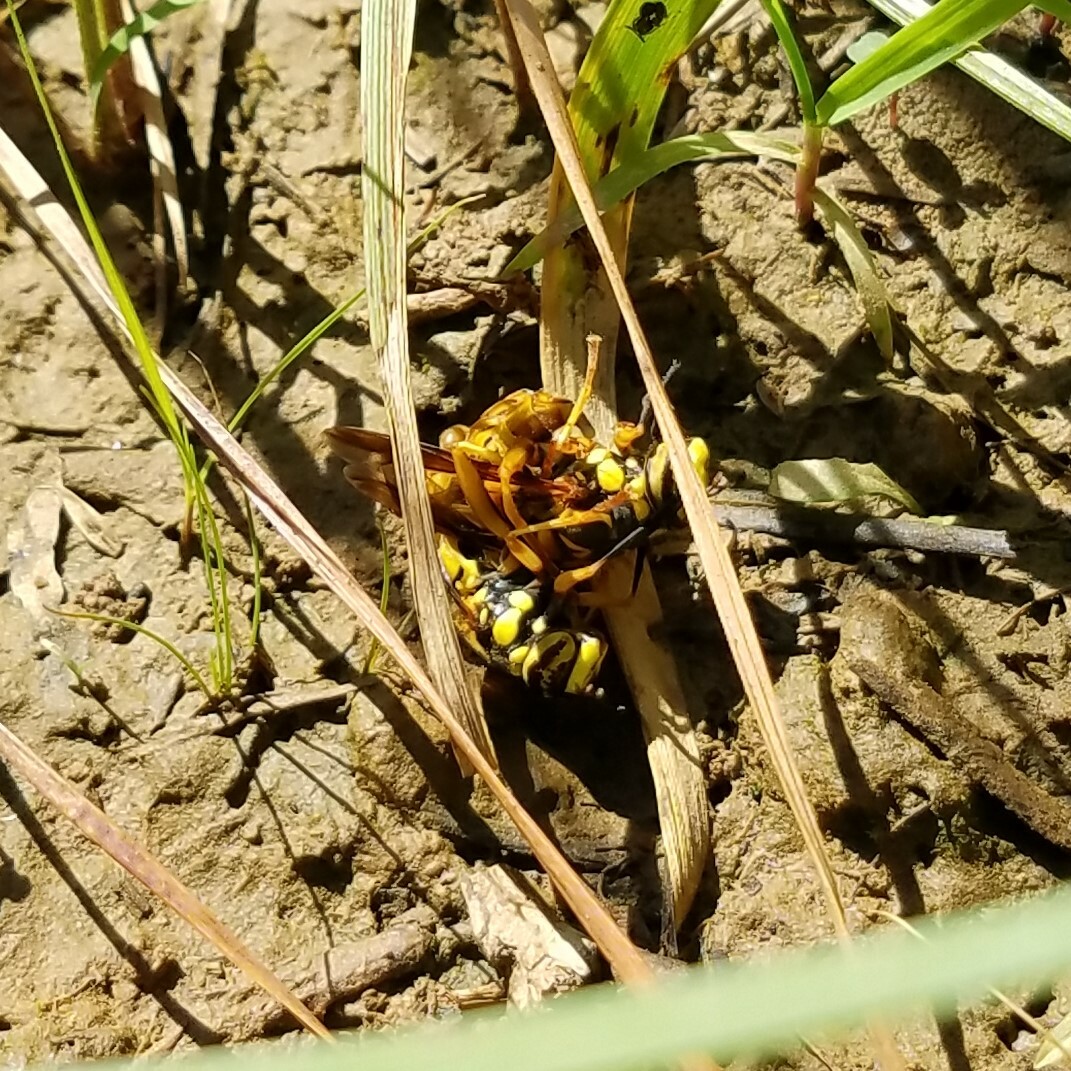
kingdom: Animalia
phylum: Arthropoda
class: Insecta
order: Diptera
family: Syrphidae
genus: Spilomyia
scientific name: Spilomyia alcimus
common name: Broad-banded hornet fly
